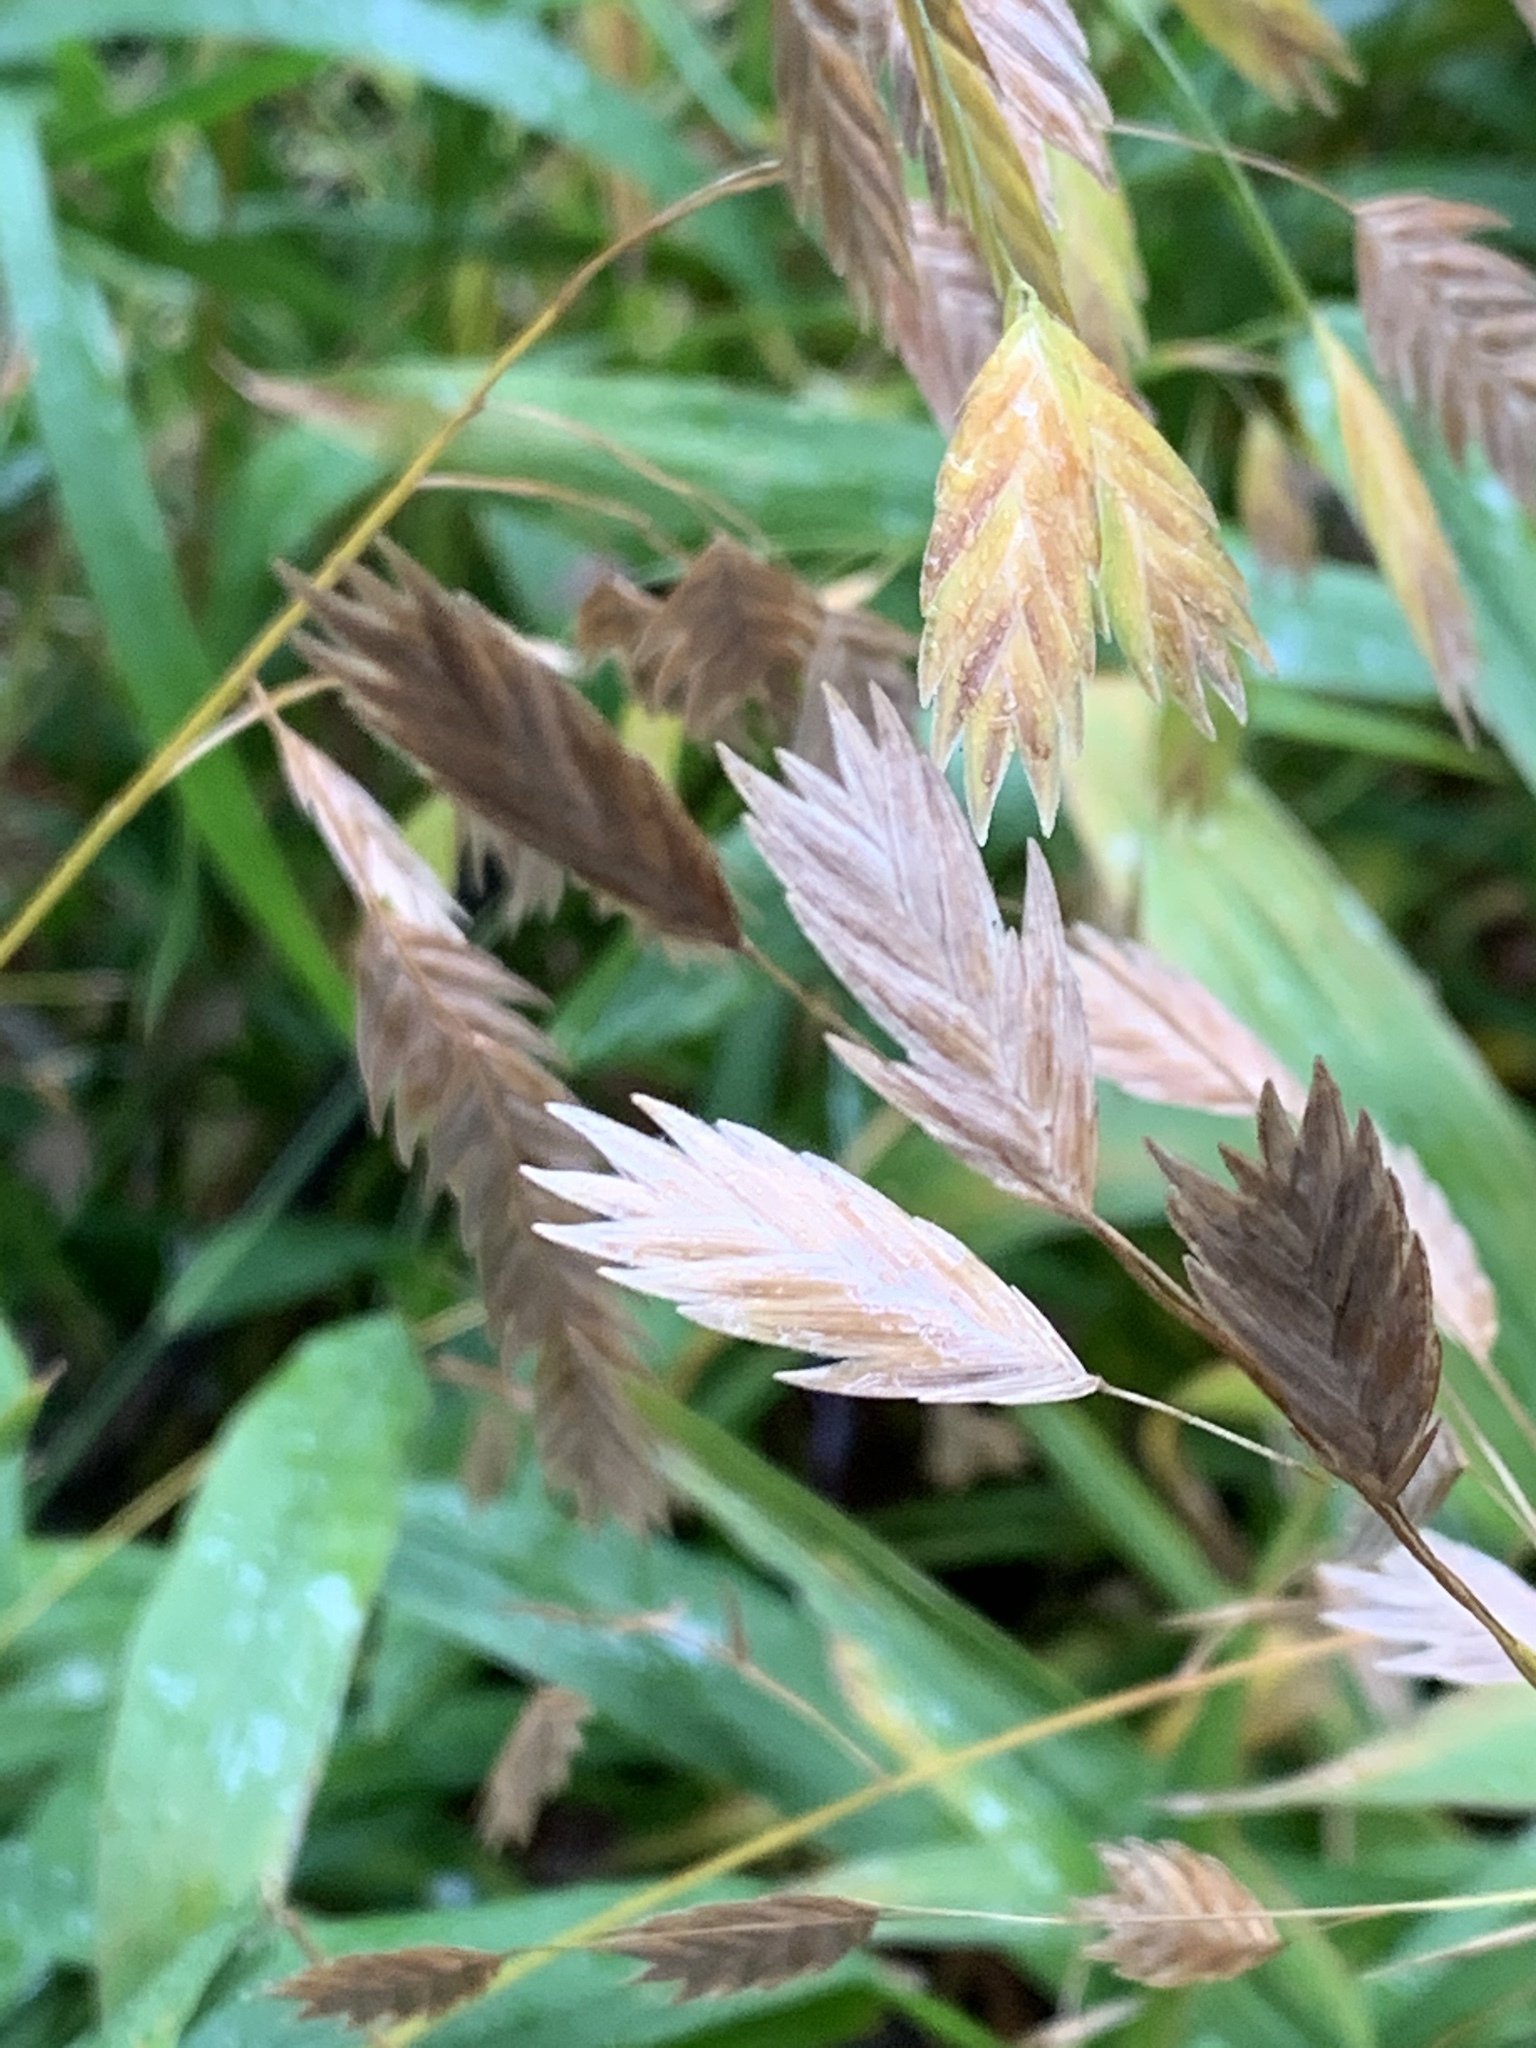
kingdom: Plantae
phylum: Tracheophyta
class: Liliopsida
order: Poales
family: Poaceae
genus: Chasmanthium
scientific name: Chasmanthium latifolium
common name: Broad-leaved chasmanthium
